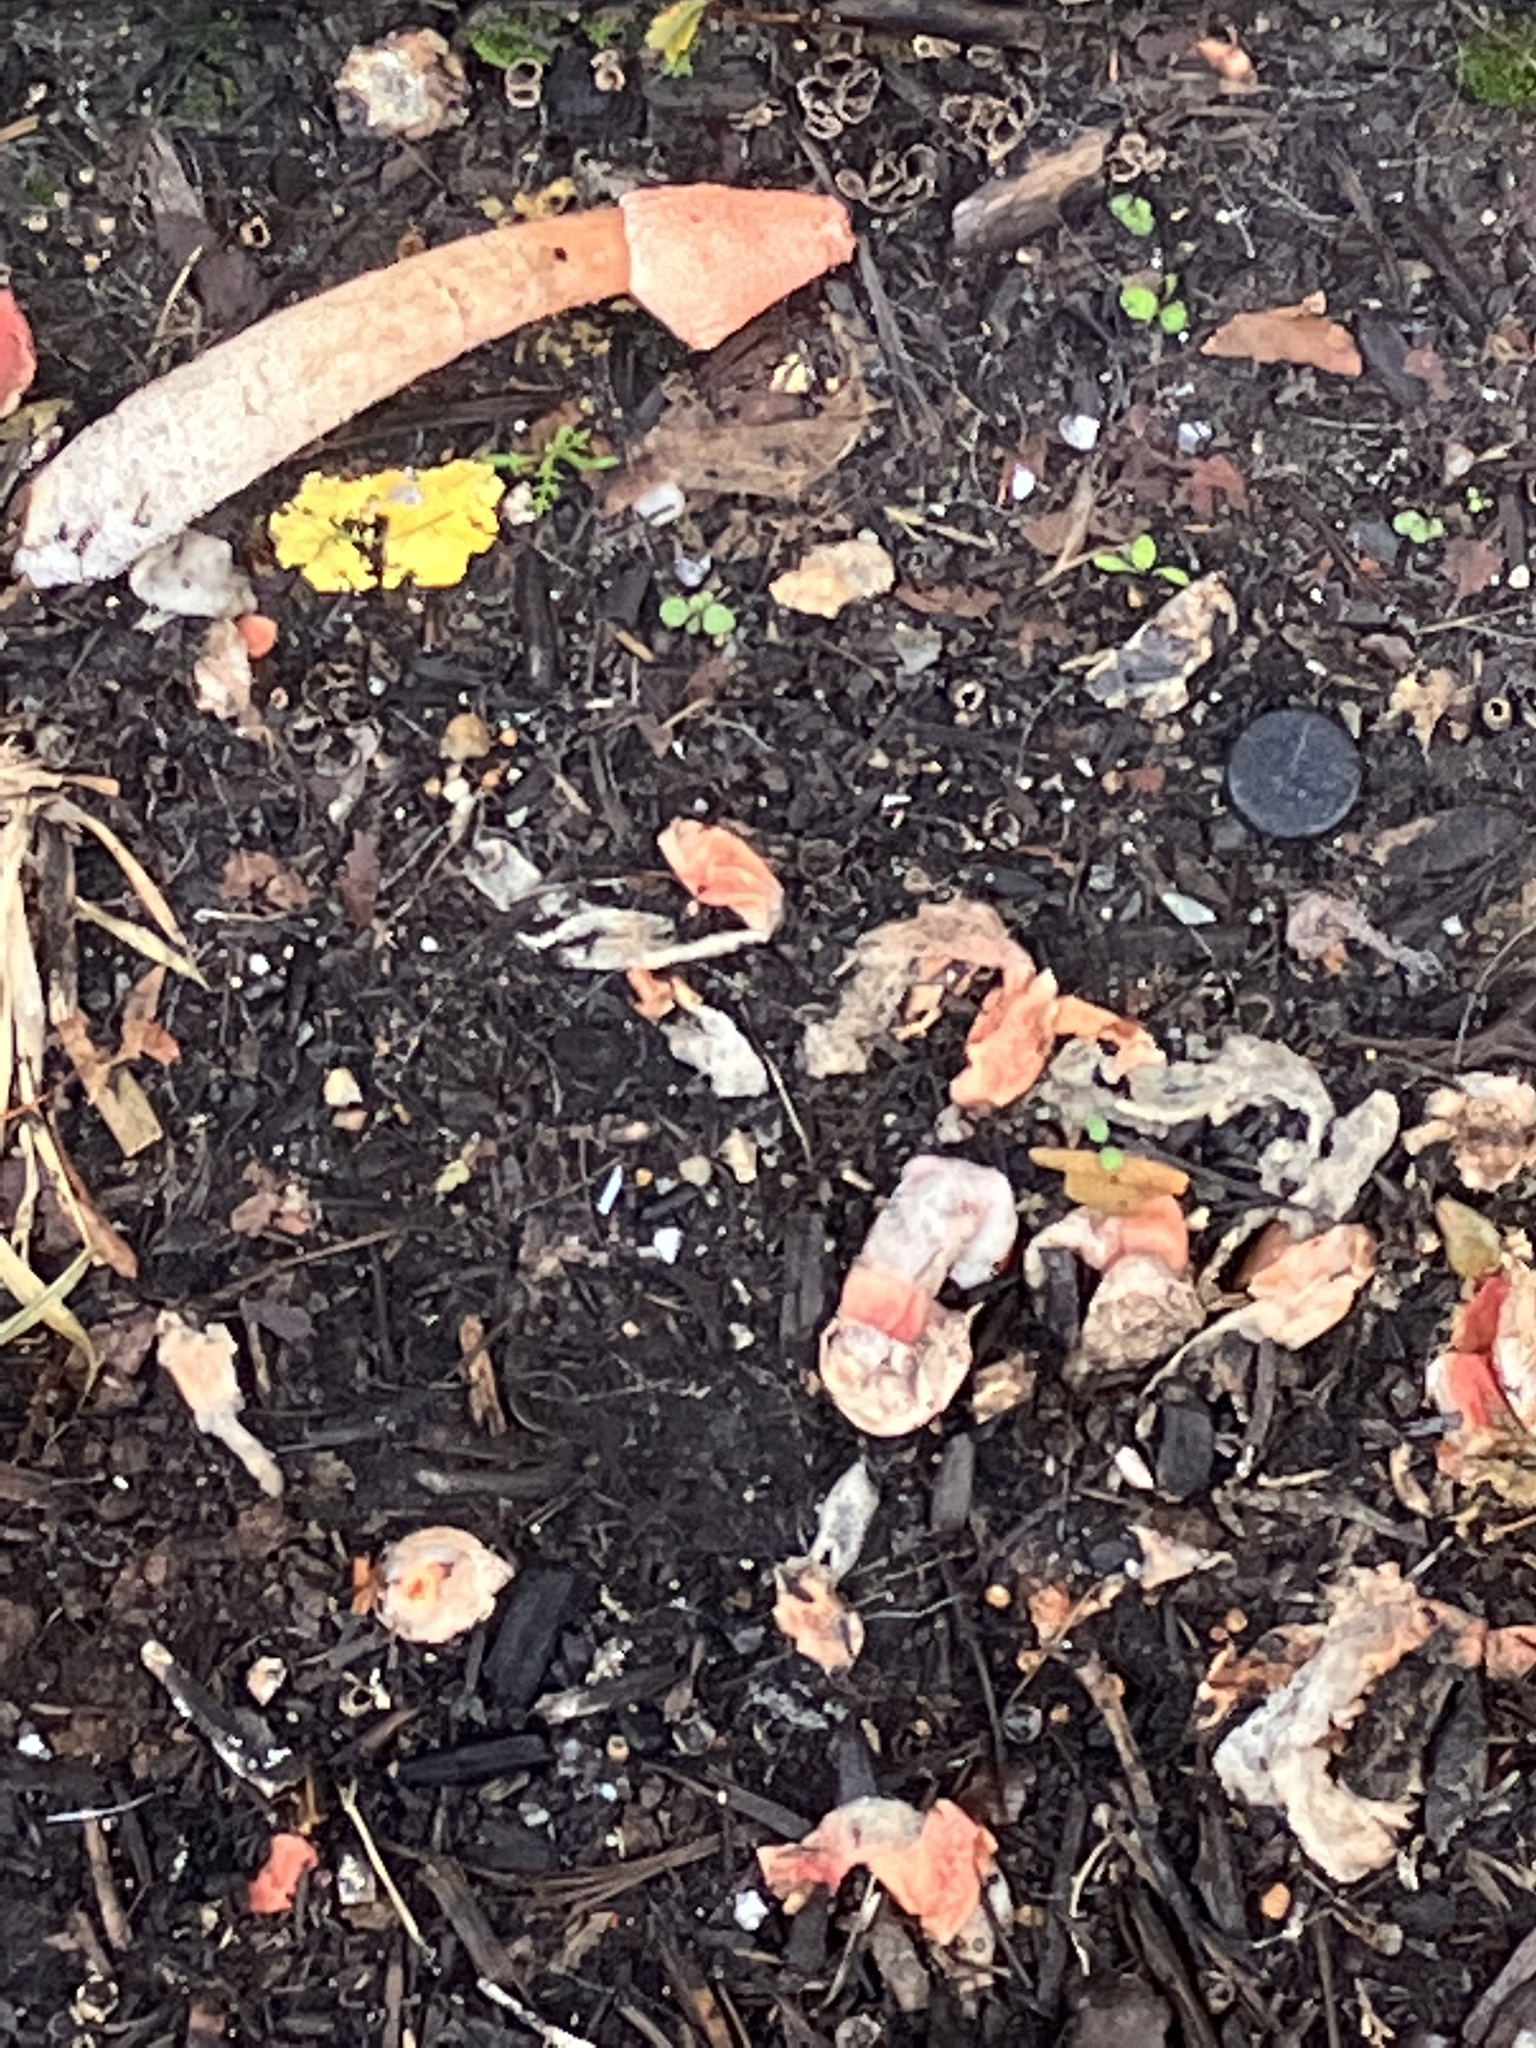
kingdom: Fungi
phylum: Basidiomycota
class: Agaricomycetes
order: Phallales
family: Phallaceae
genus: Phallus
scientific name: Phallus rugulosus
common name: Wrinkly stinkhorn
